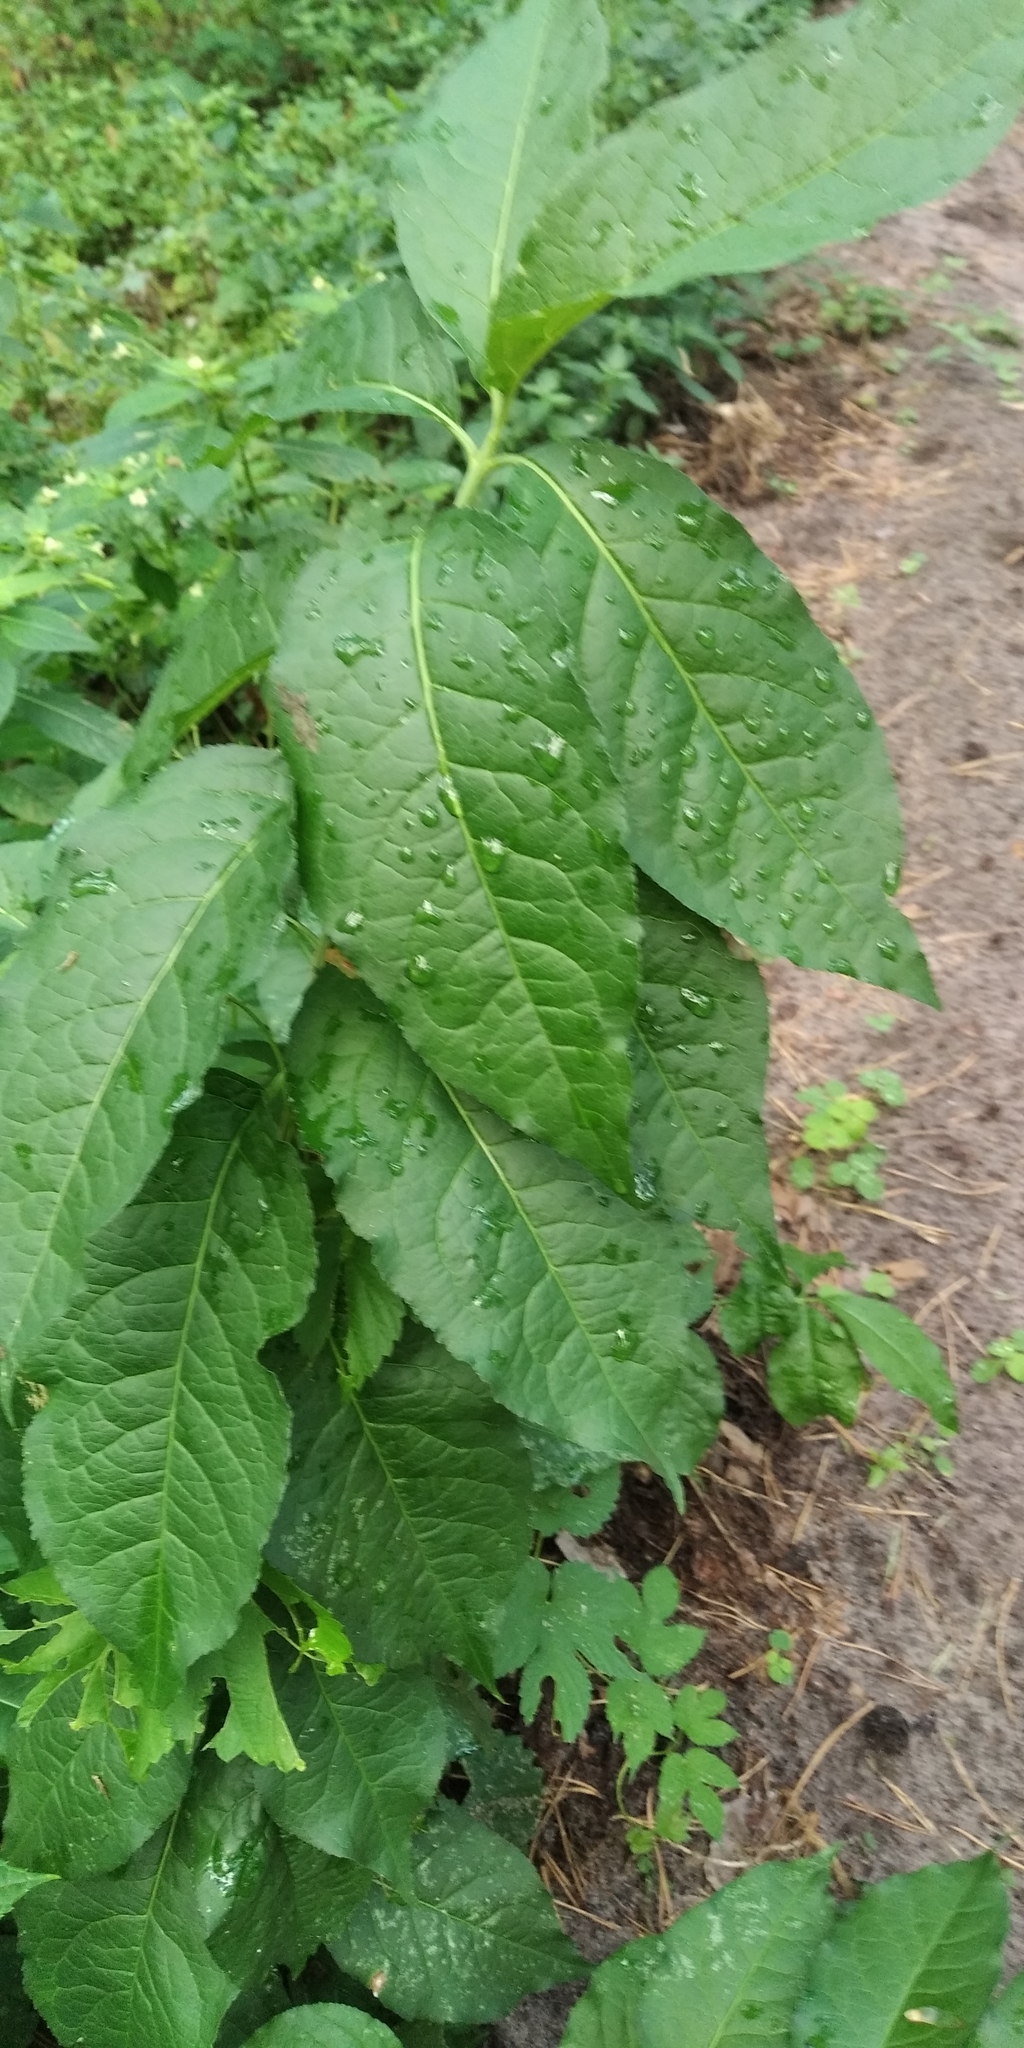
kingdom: Plantae
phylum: Tracheophyta
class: Magnoliopsida
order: Celastrales
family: Celastraceae
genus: Euonymus
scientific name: Euonymus europaeus
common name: Spindle
